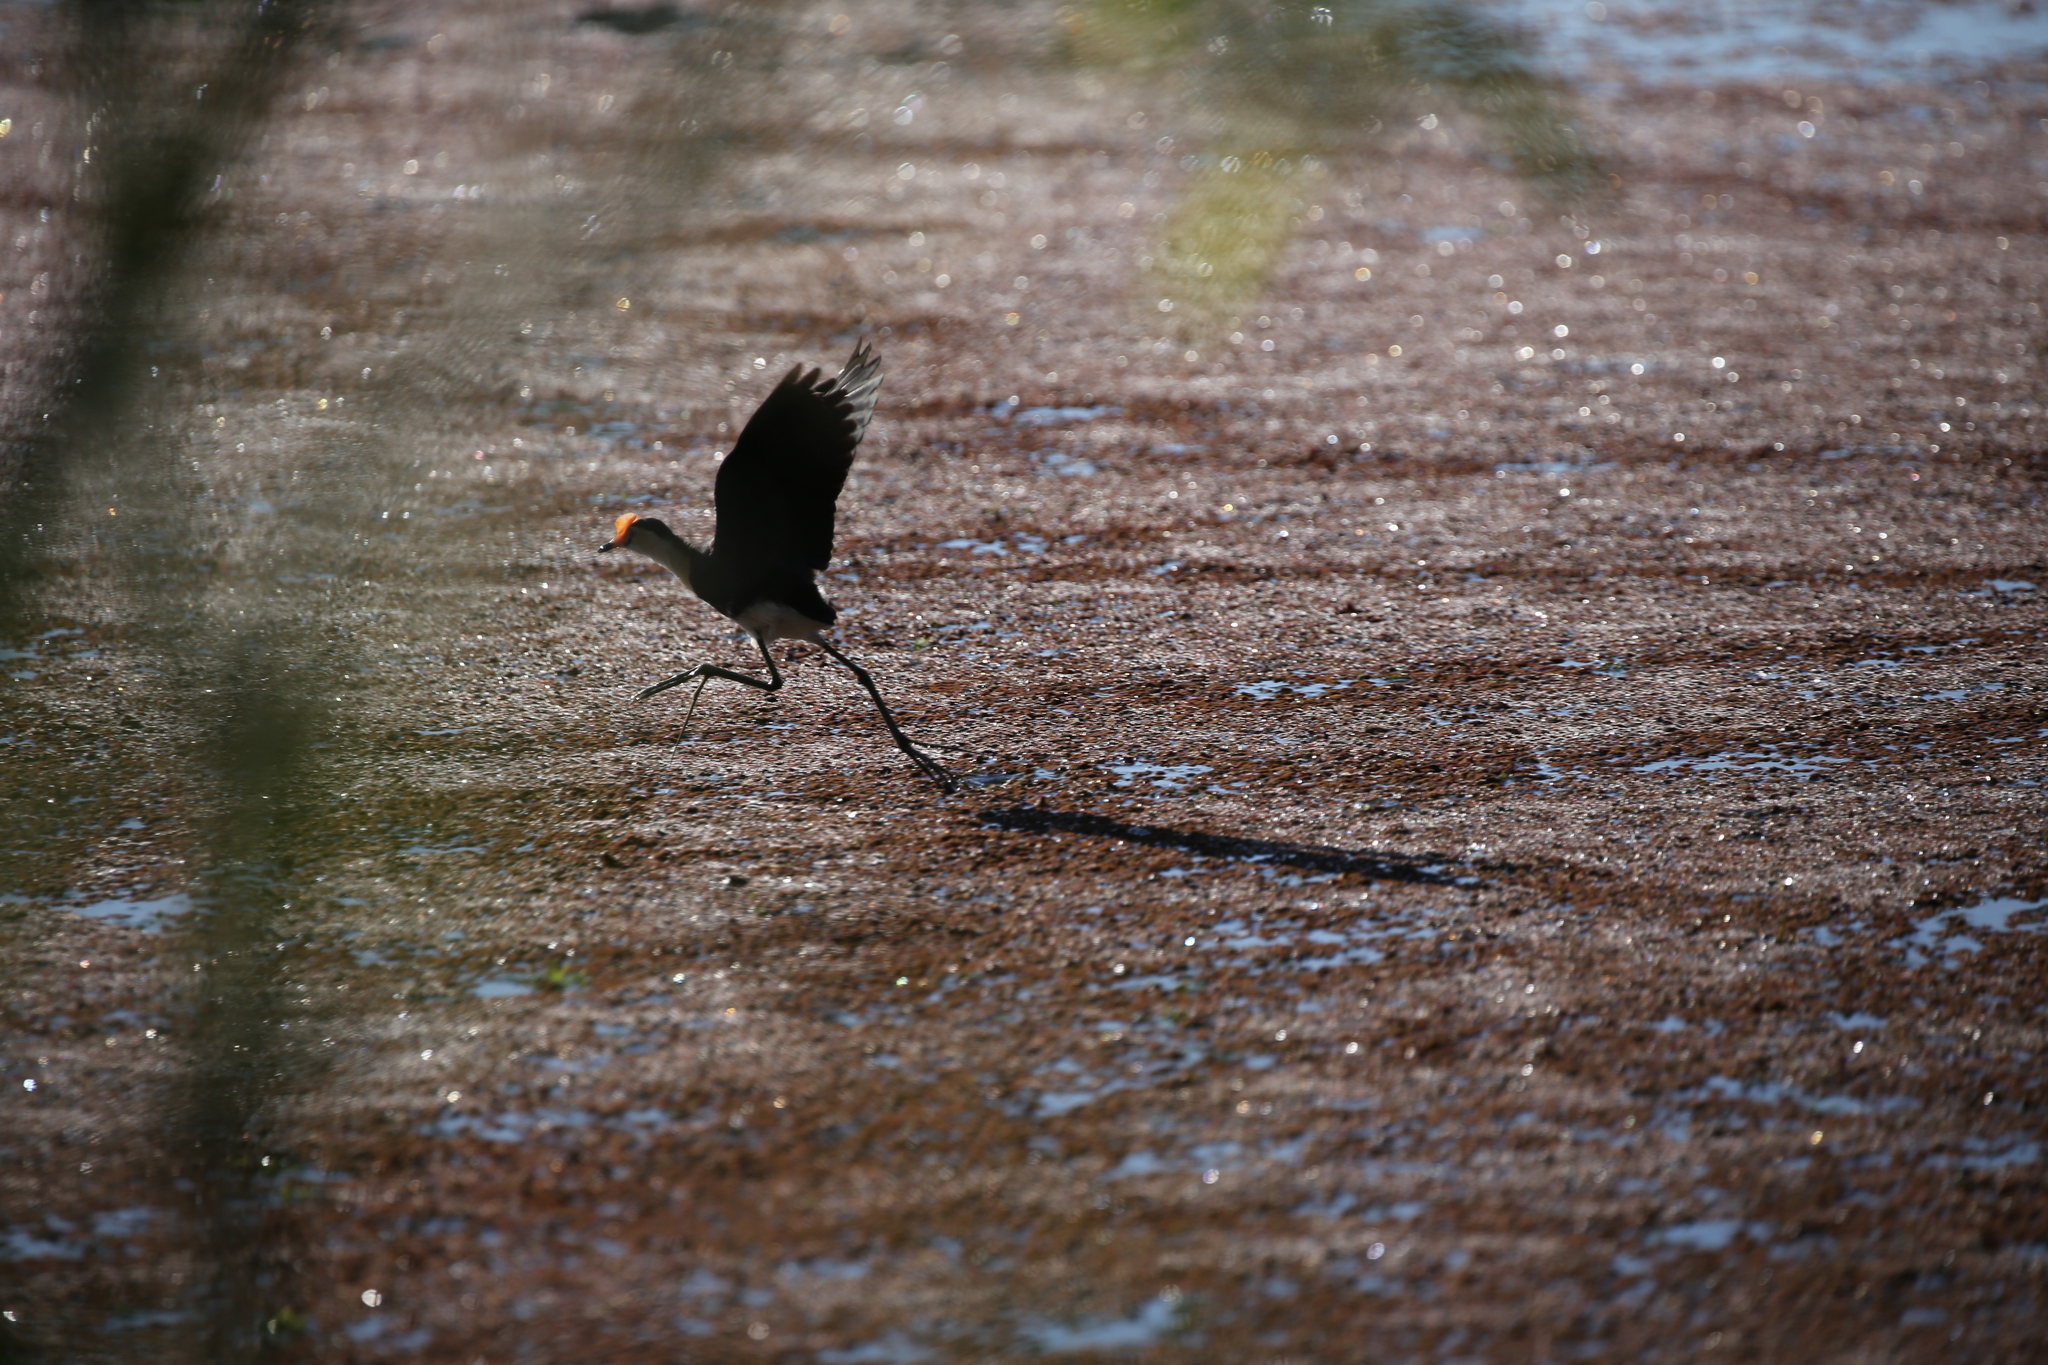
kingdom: Animalia
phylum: Chordata
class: Aves
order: Charadriiformes
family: Jacanidae
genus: Irediparra
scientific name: Irediparra gallinacea
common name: Comb-crested jacana
